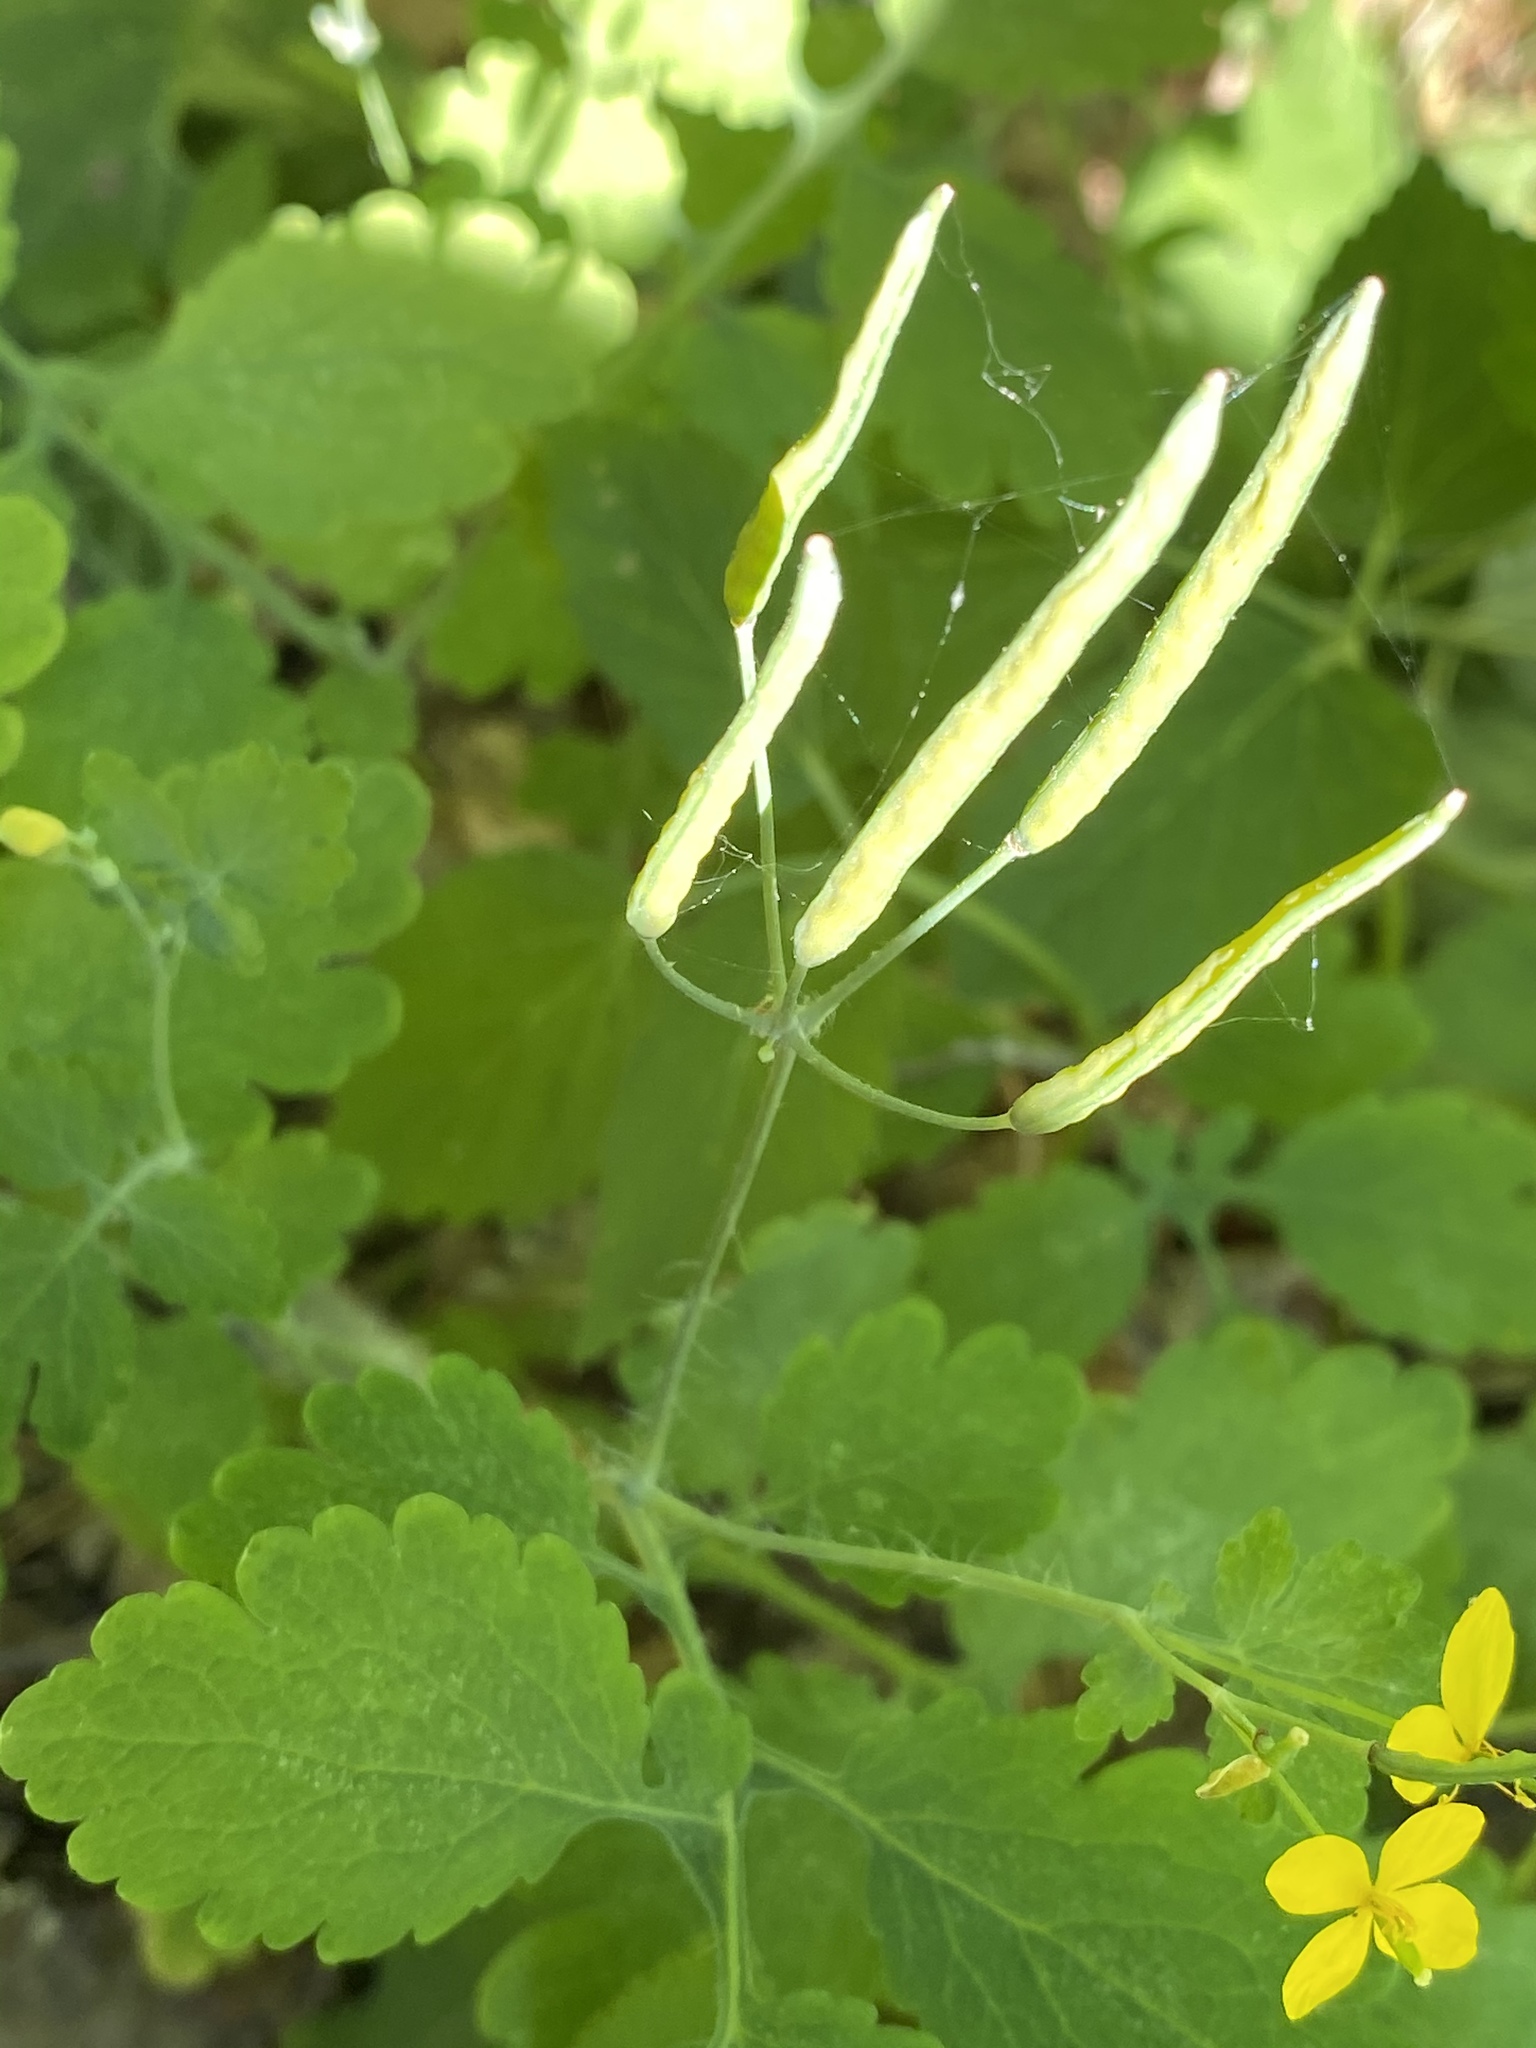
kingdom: Plantae
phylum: Tracheophyta
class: Magnoliopsida
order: Ranunculales
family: Papaveraceae
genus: Chelidonium
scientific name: Chelidonium majus
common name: Greater celandine
